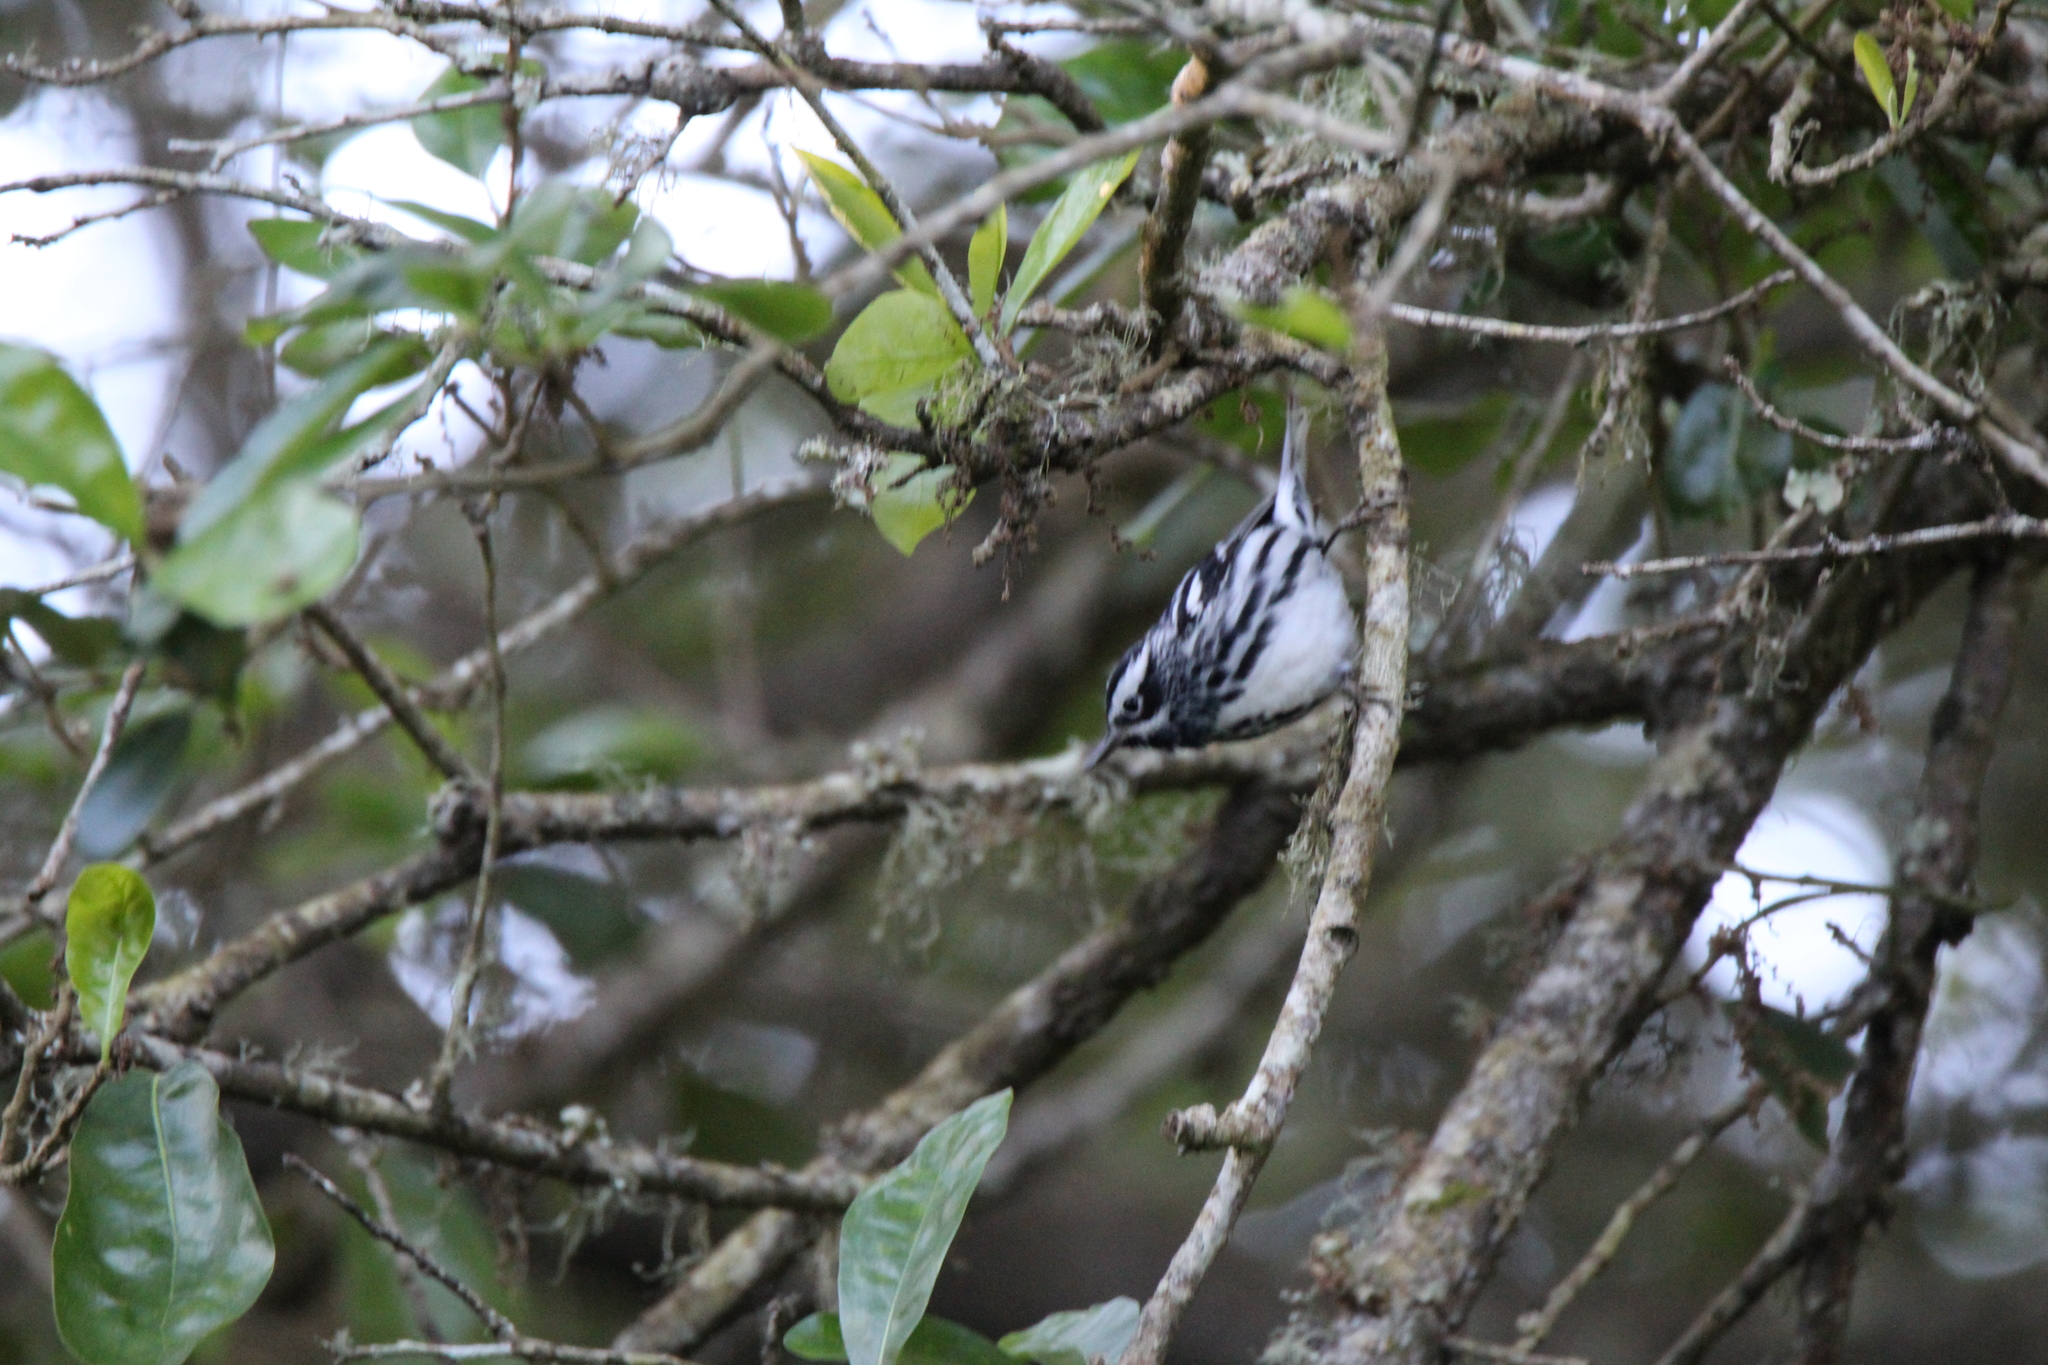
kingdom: Animalia
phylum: Chordata
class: Aves
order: Passeriformes
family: Parulidae
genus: Mniotilta
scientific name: Mniotilta varia
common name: Black-and-white warbler
